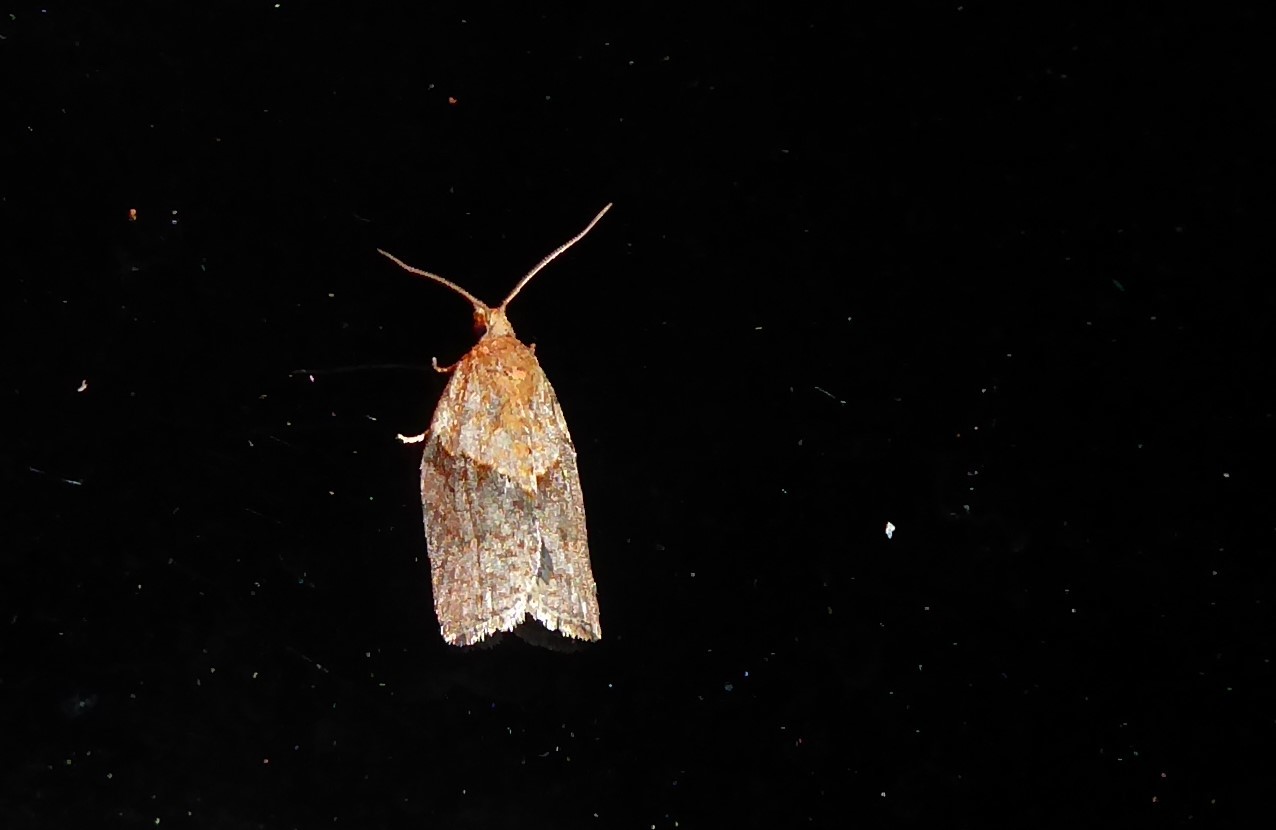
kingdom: Animalia
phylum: Arthropoda
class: Insecta
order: Lepidoptera
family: Tortricidae
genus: Epiphyas
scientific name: Epiphyas postvittana
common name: Light brown apple moth
